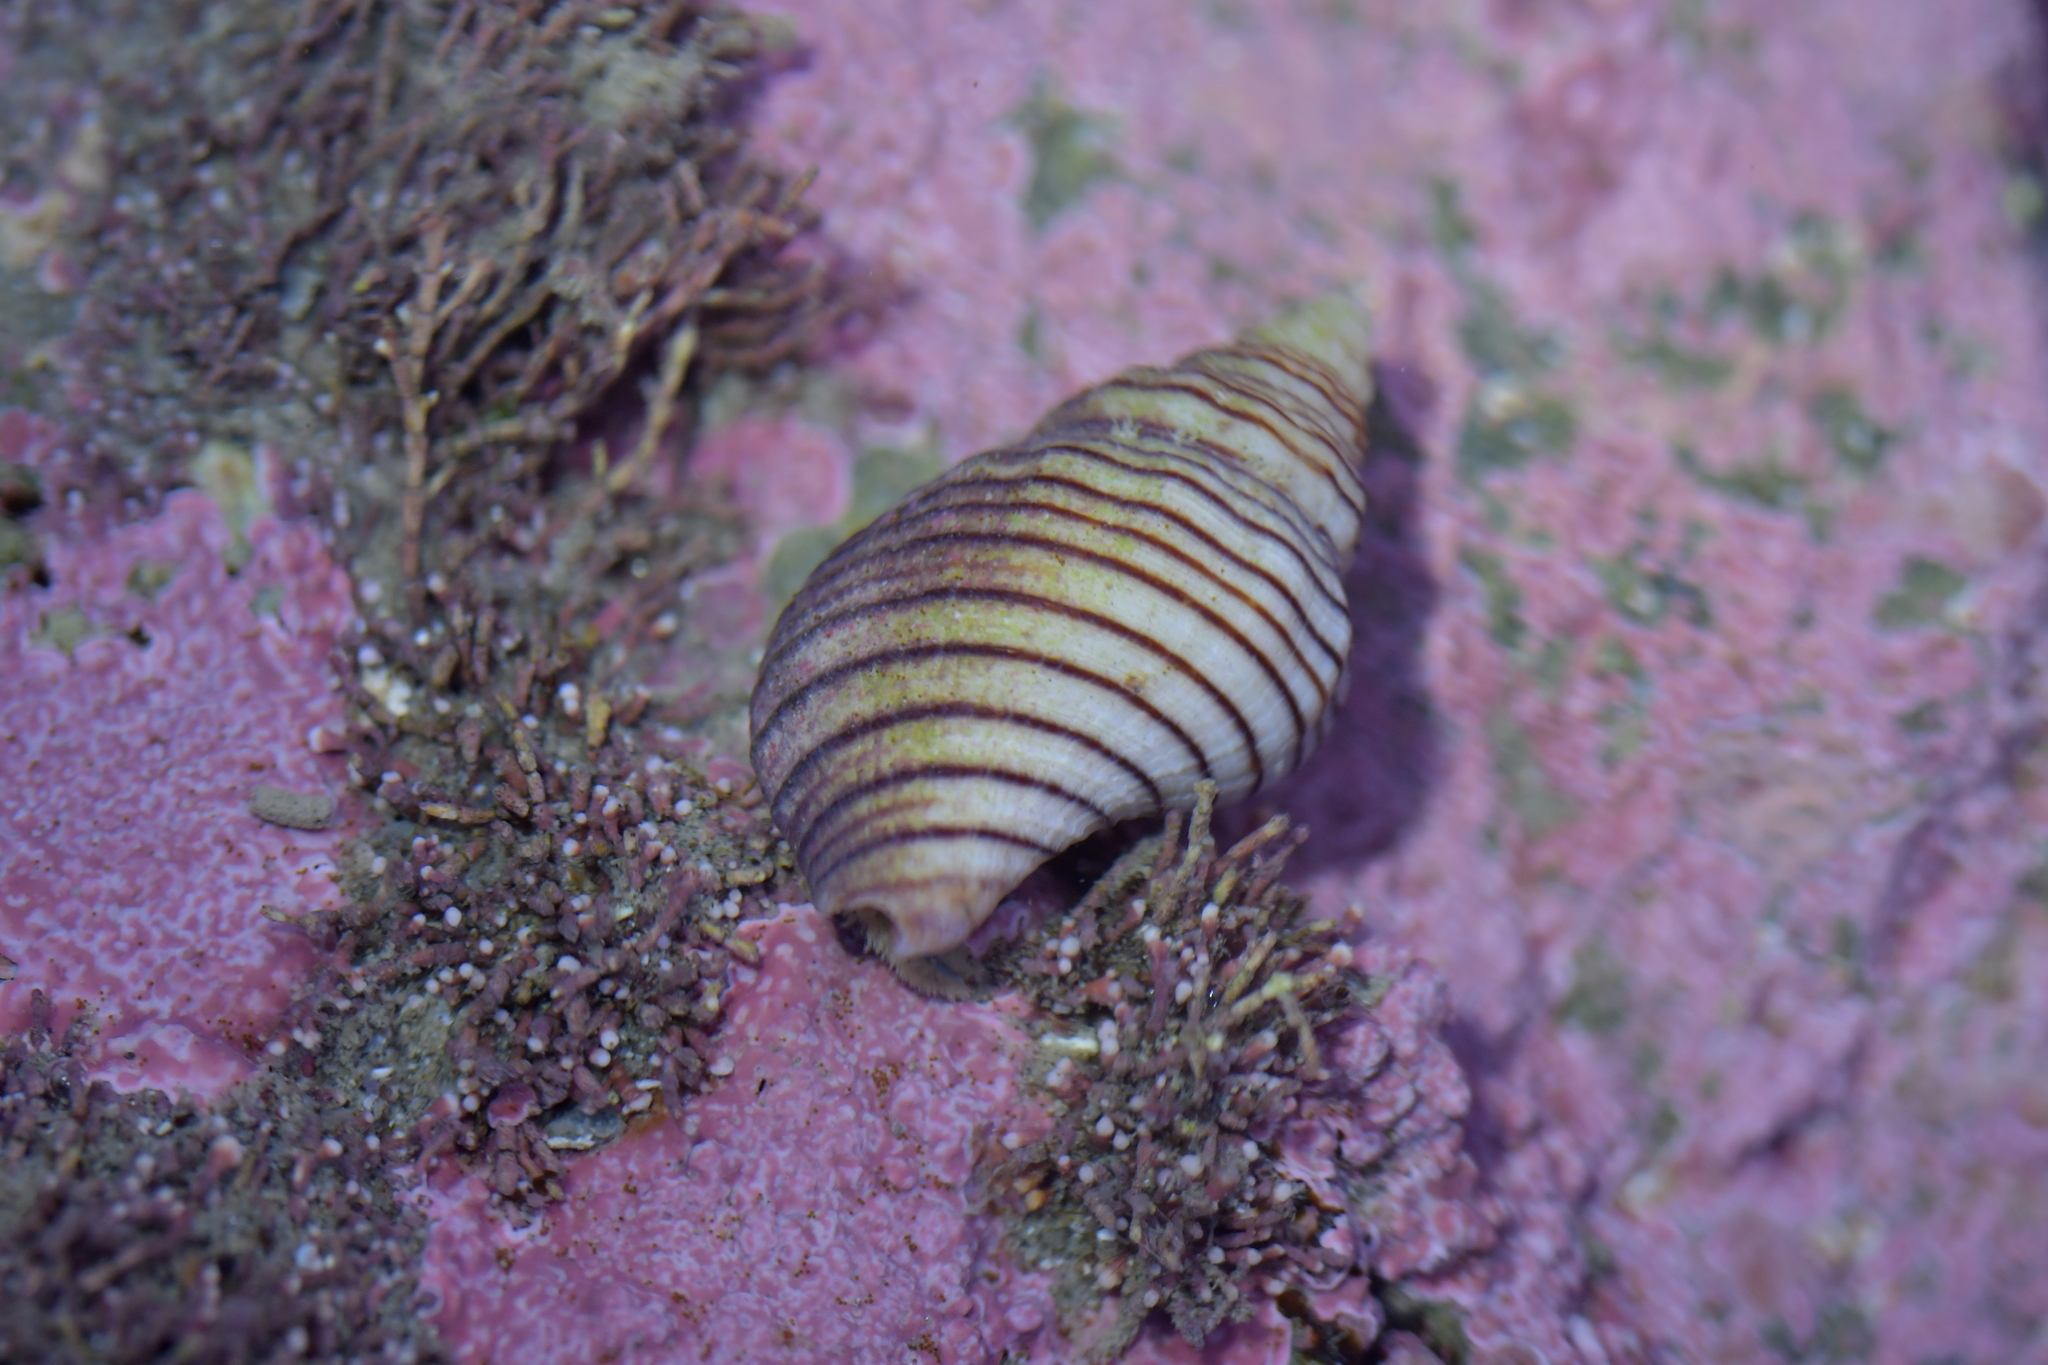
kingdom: Animalia
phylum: Mollusca
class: Gastropoda
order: Neogastropoda
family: Tudiclidae
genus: Buccinulum
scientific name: Buccinulum linea
